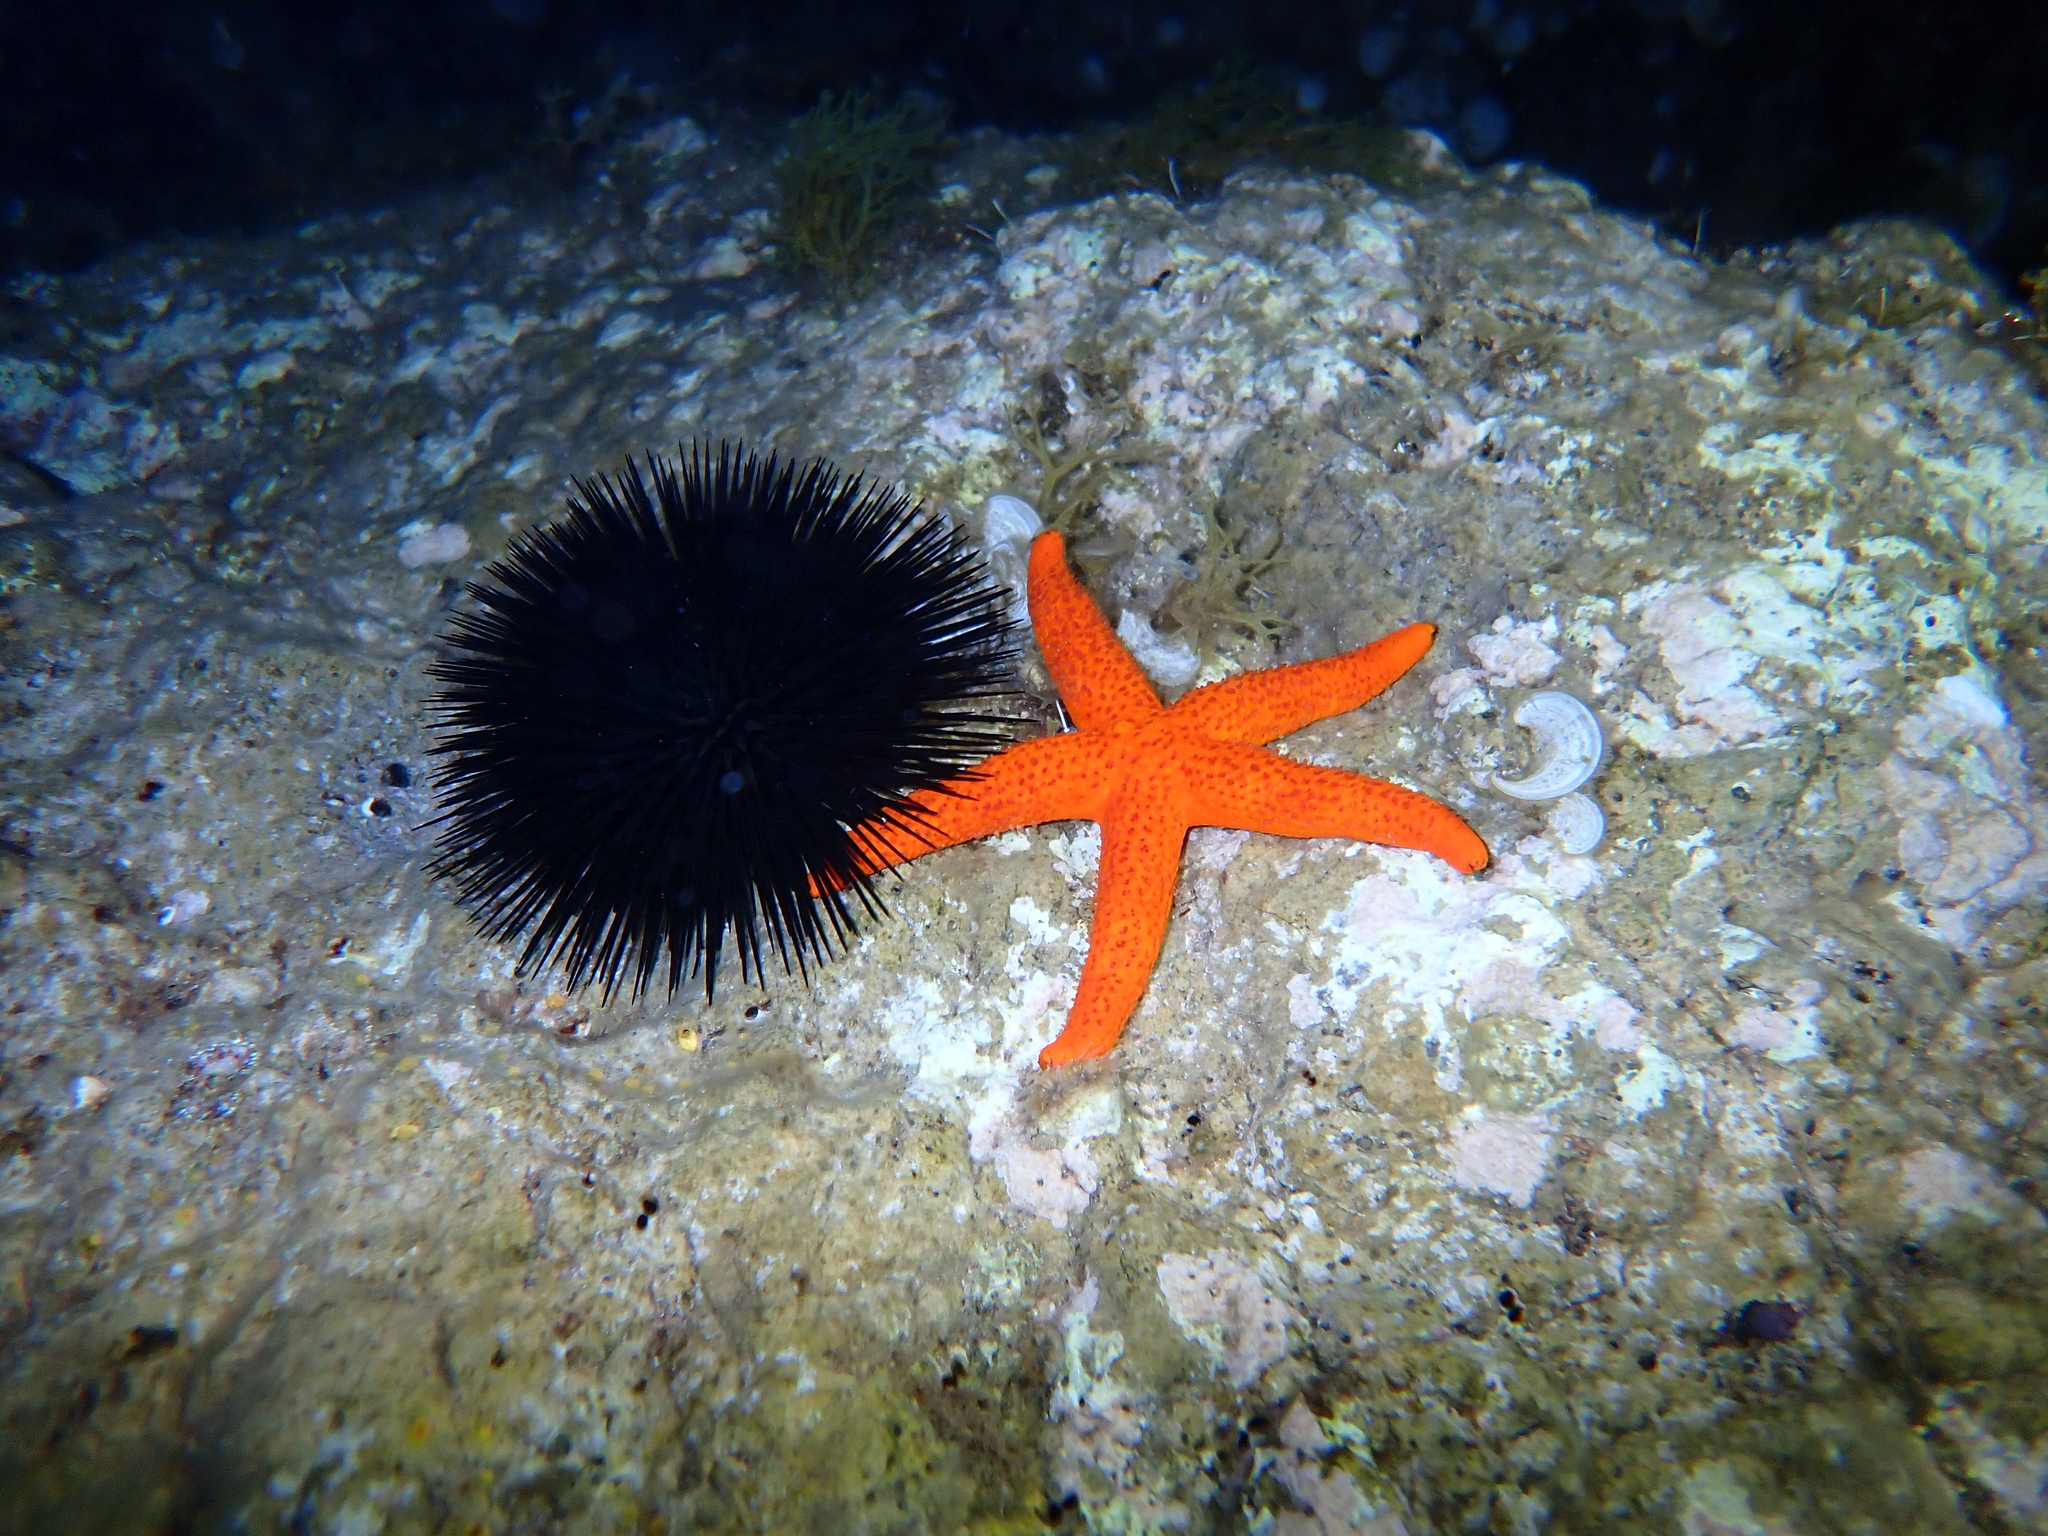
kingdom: Animalia
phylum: Echinodermata
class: Echinoidea
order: Arbacioida
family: Arbaciidae
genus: Arbacia
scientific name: Arbacia lixula
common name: Black sea urchin
